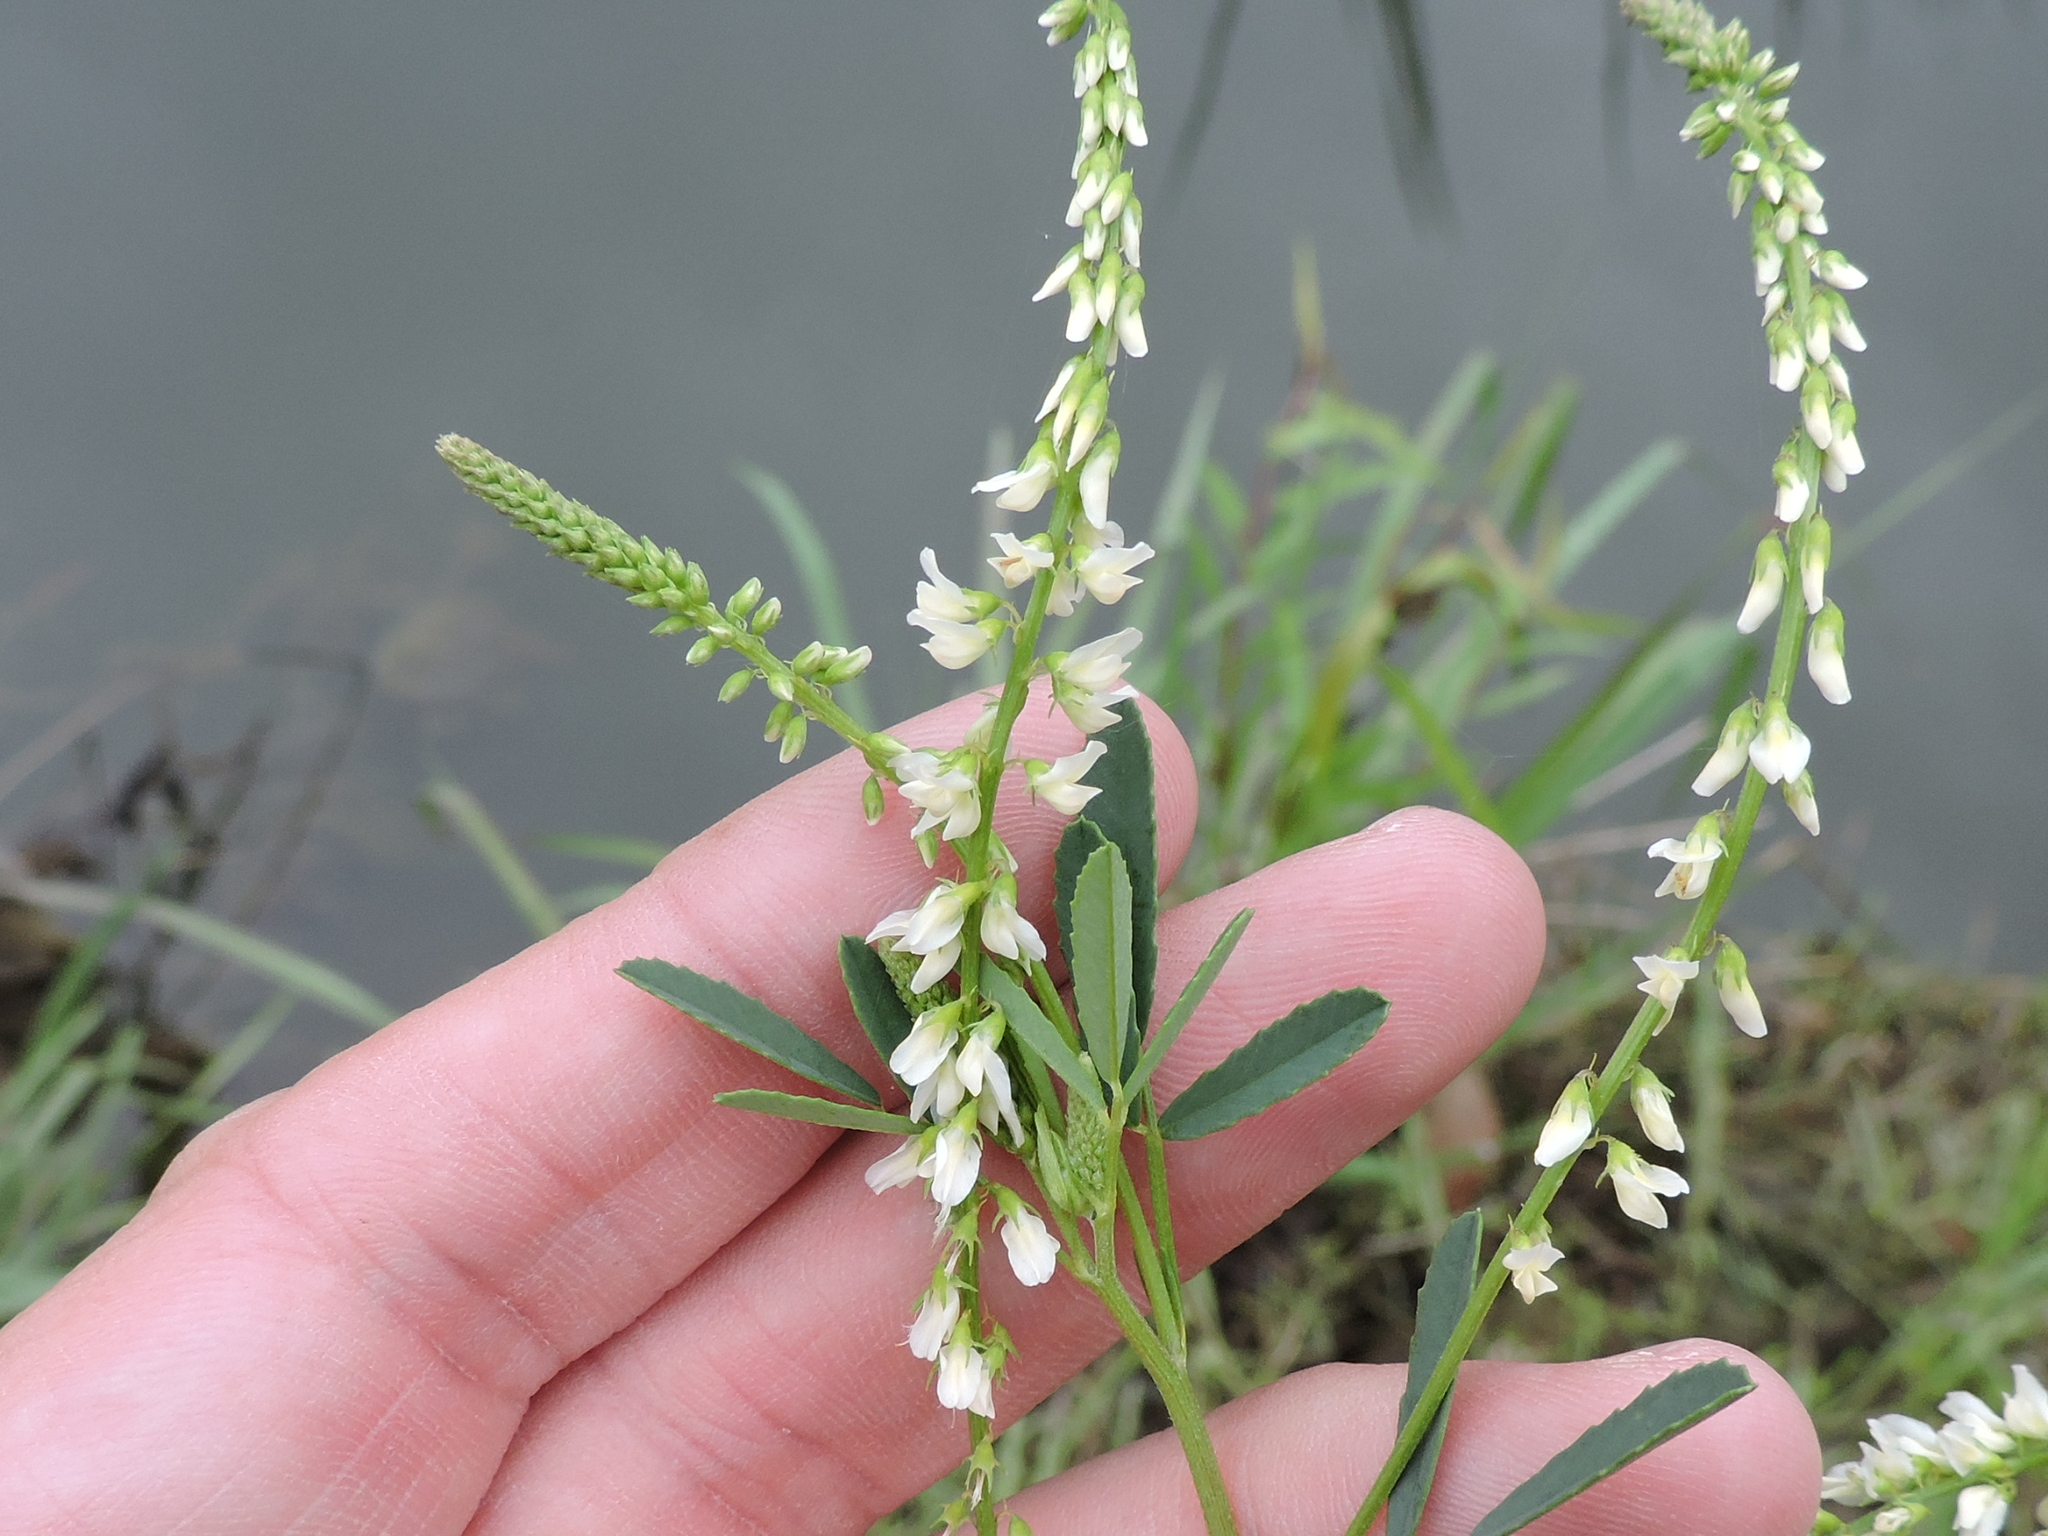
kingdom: Plantae
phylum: Tracheophyta
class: Magnoliopsida
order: Fabales
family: Fabaceae
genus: Melilotus
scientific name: Melilotus albus
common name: White melilot
